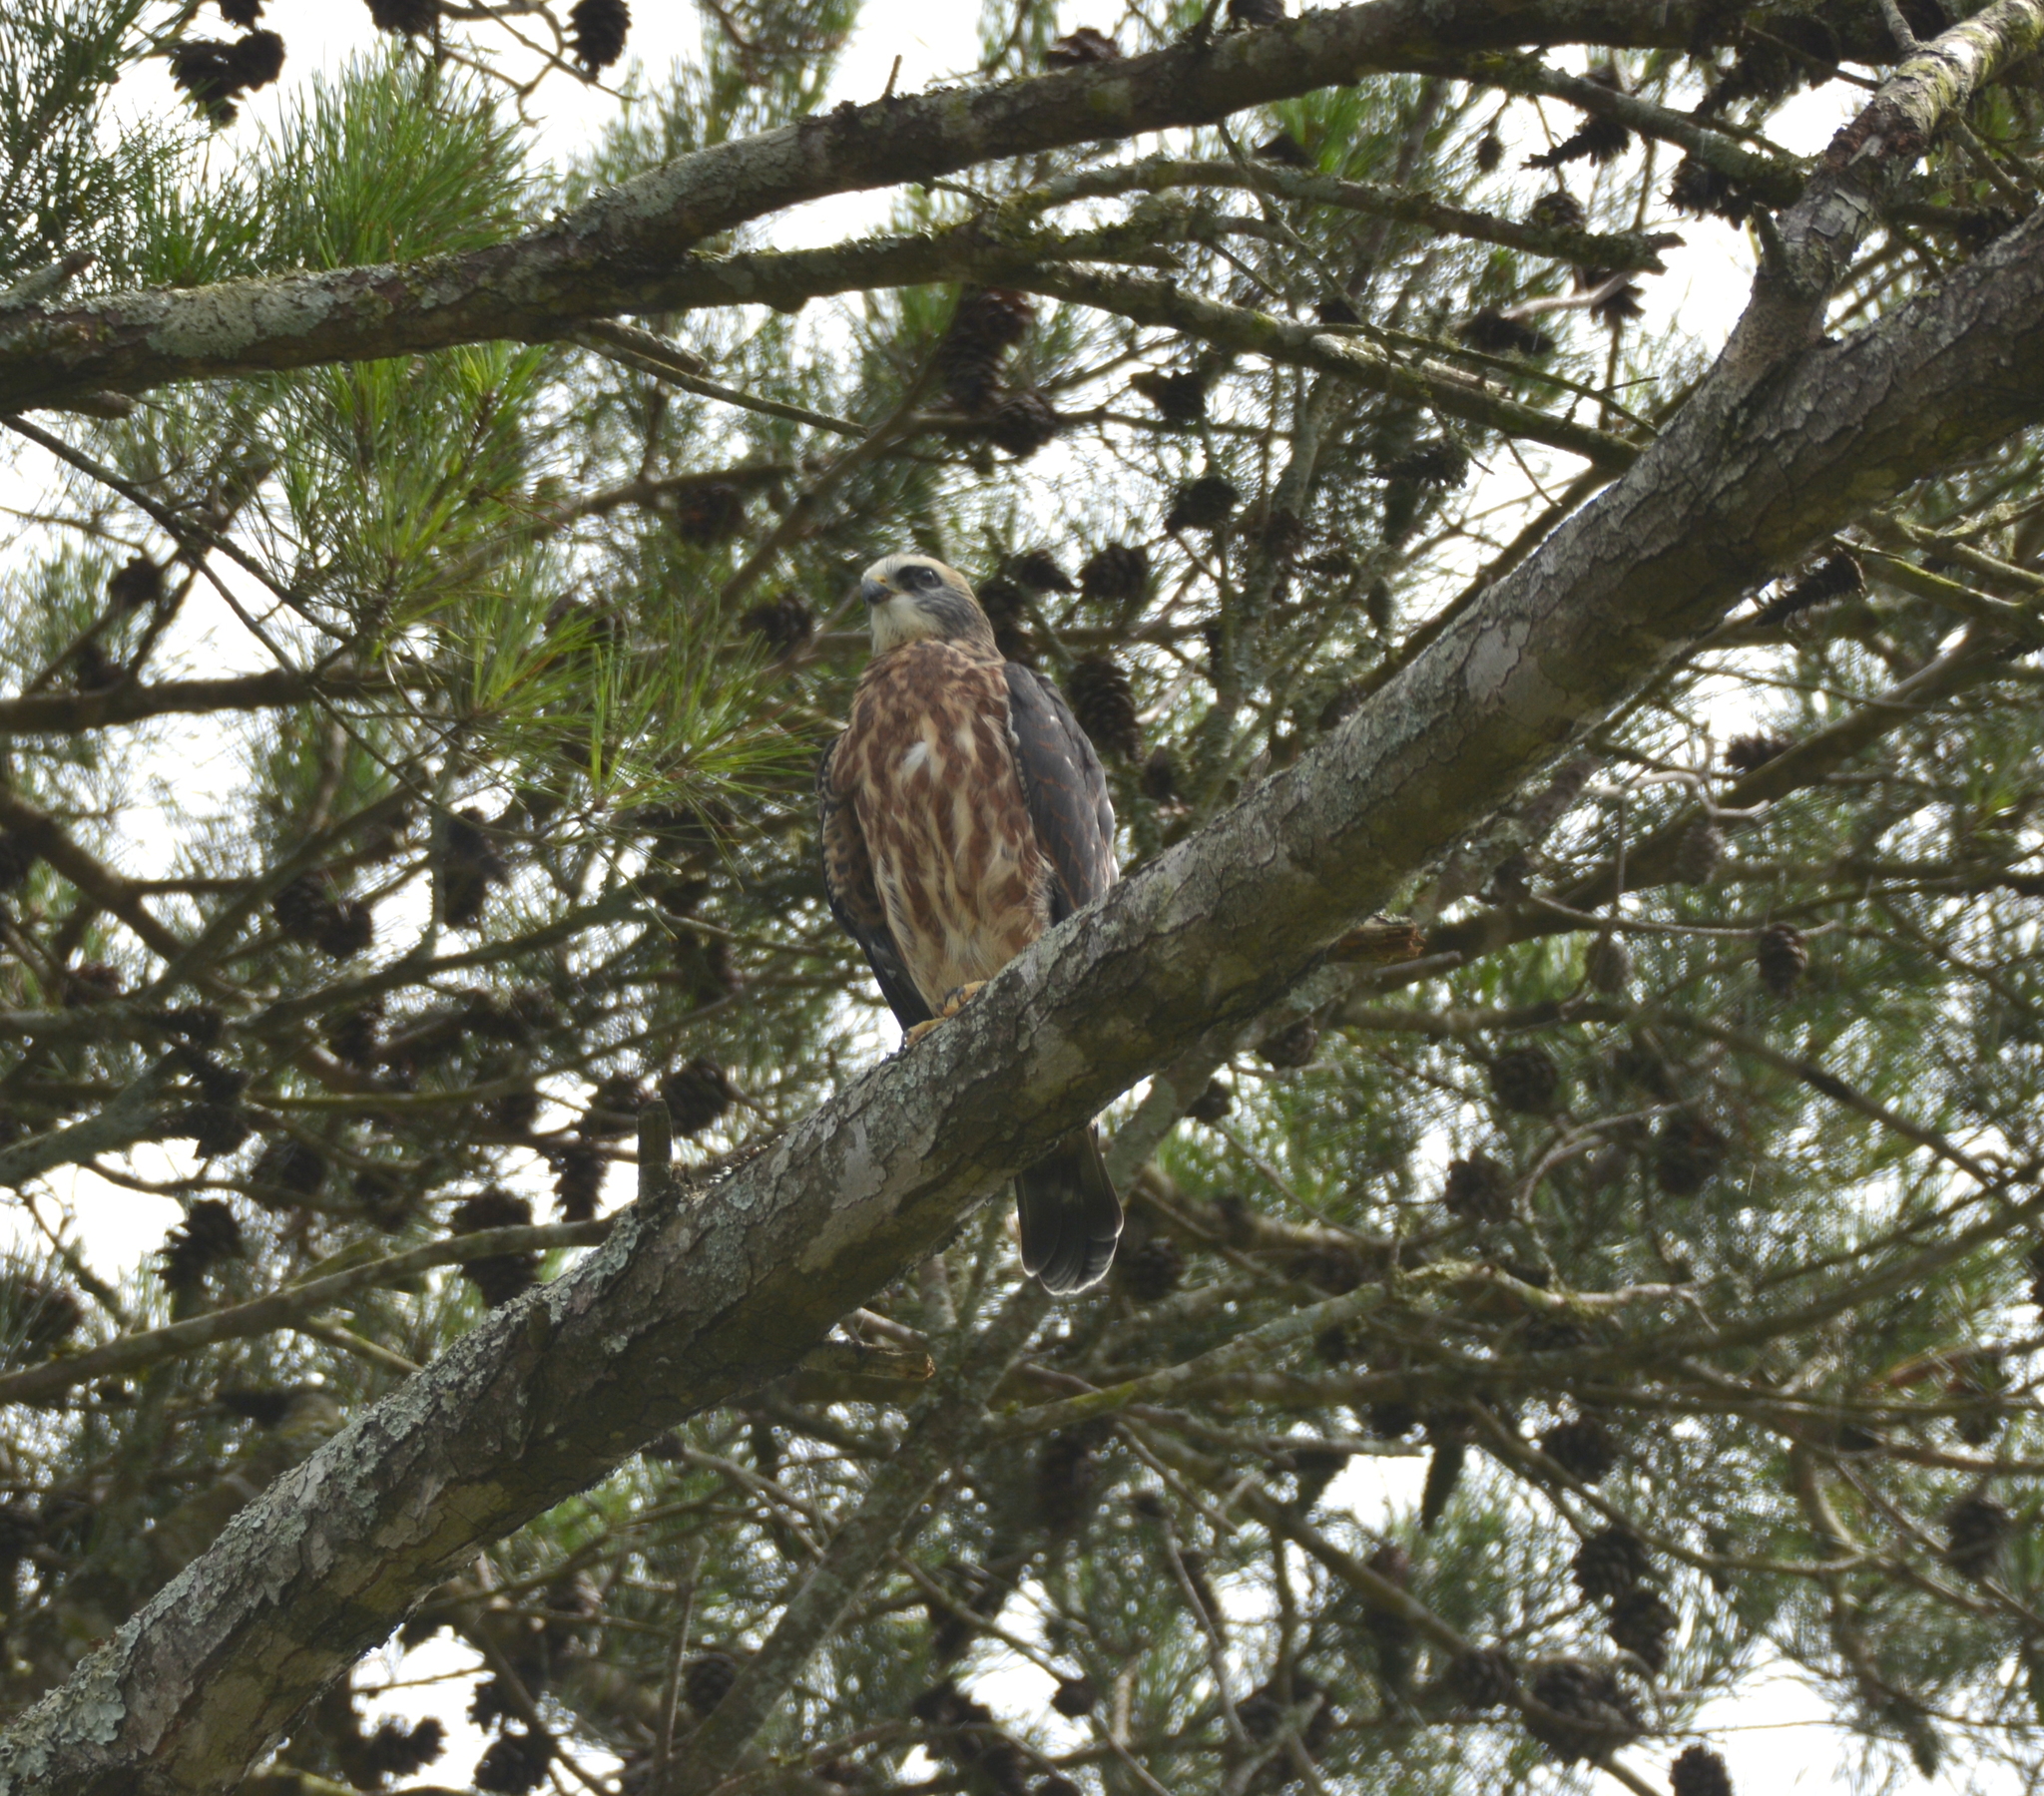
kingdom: Animalia
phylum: Chordata
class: Aves
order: Accipitriformes
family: Accipitridae
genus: Ictinia
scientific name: Ictinia mississippiensis
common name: Mississippi kite
